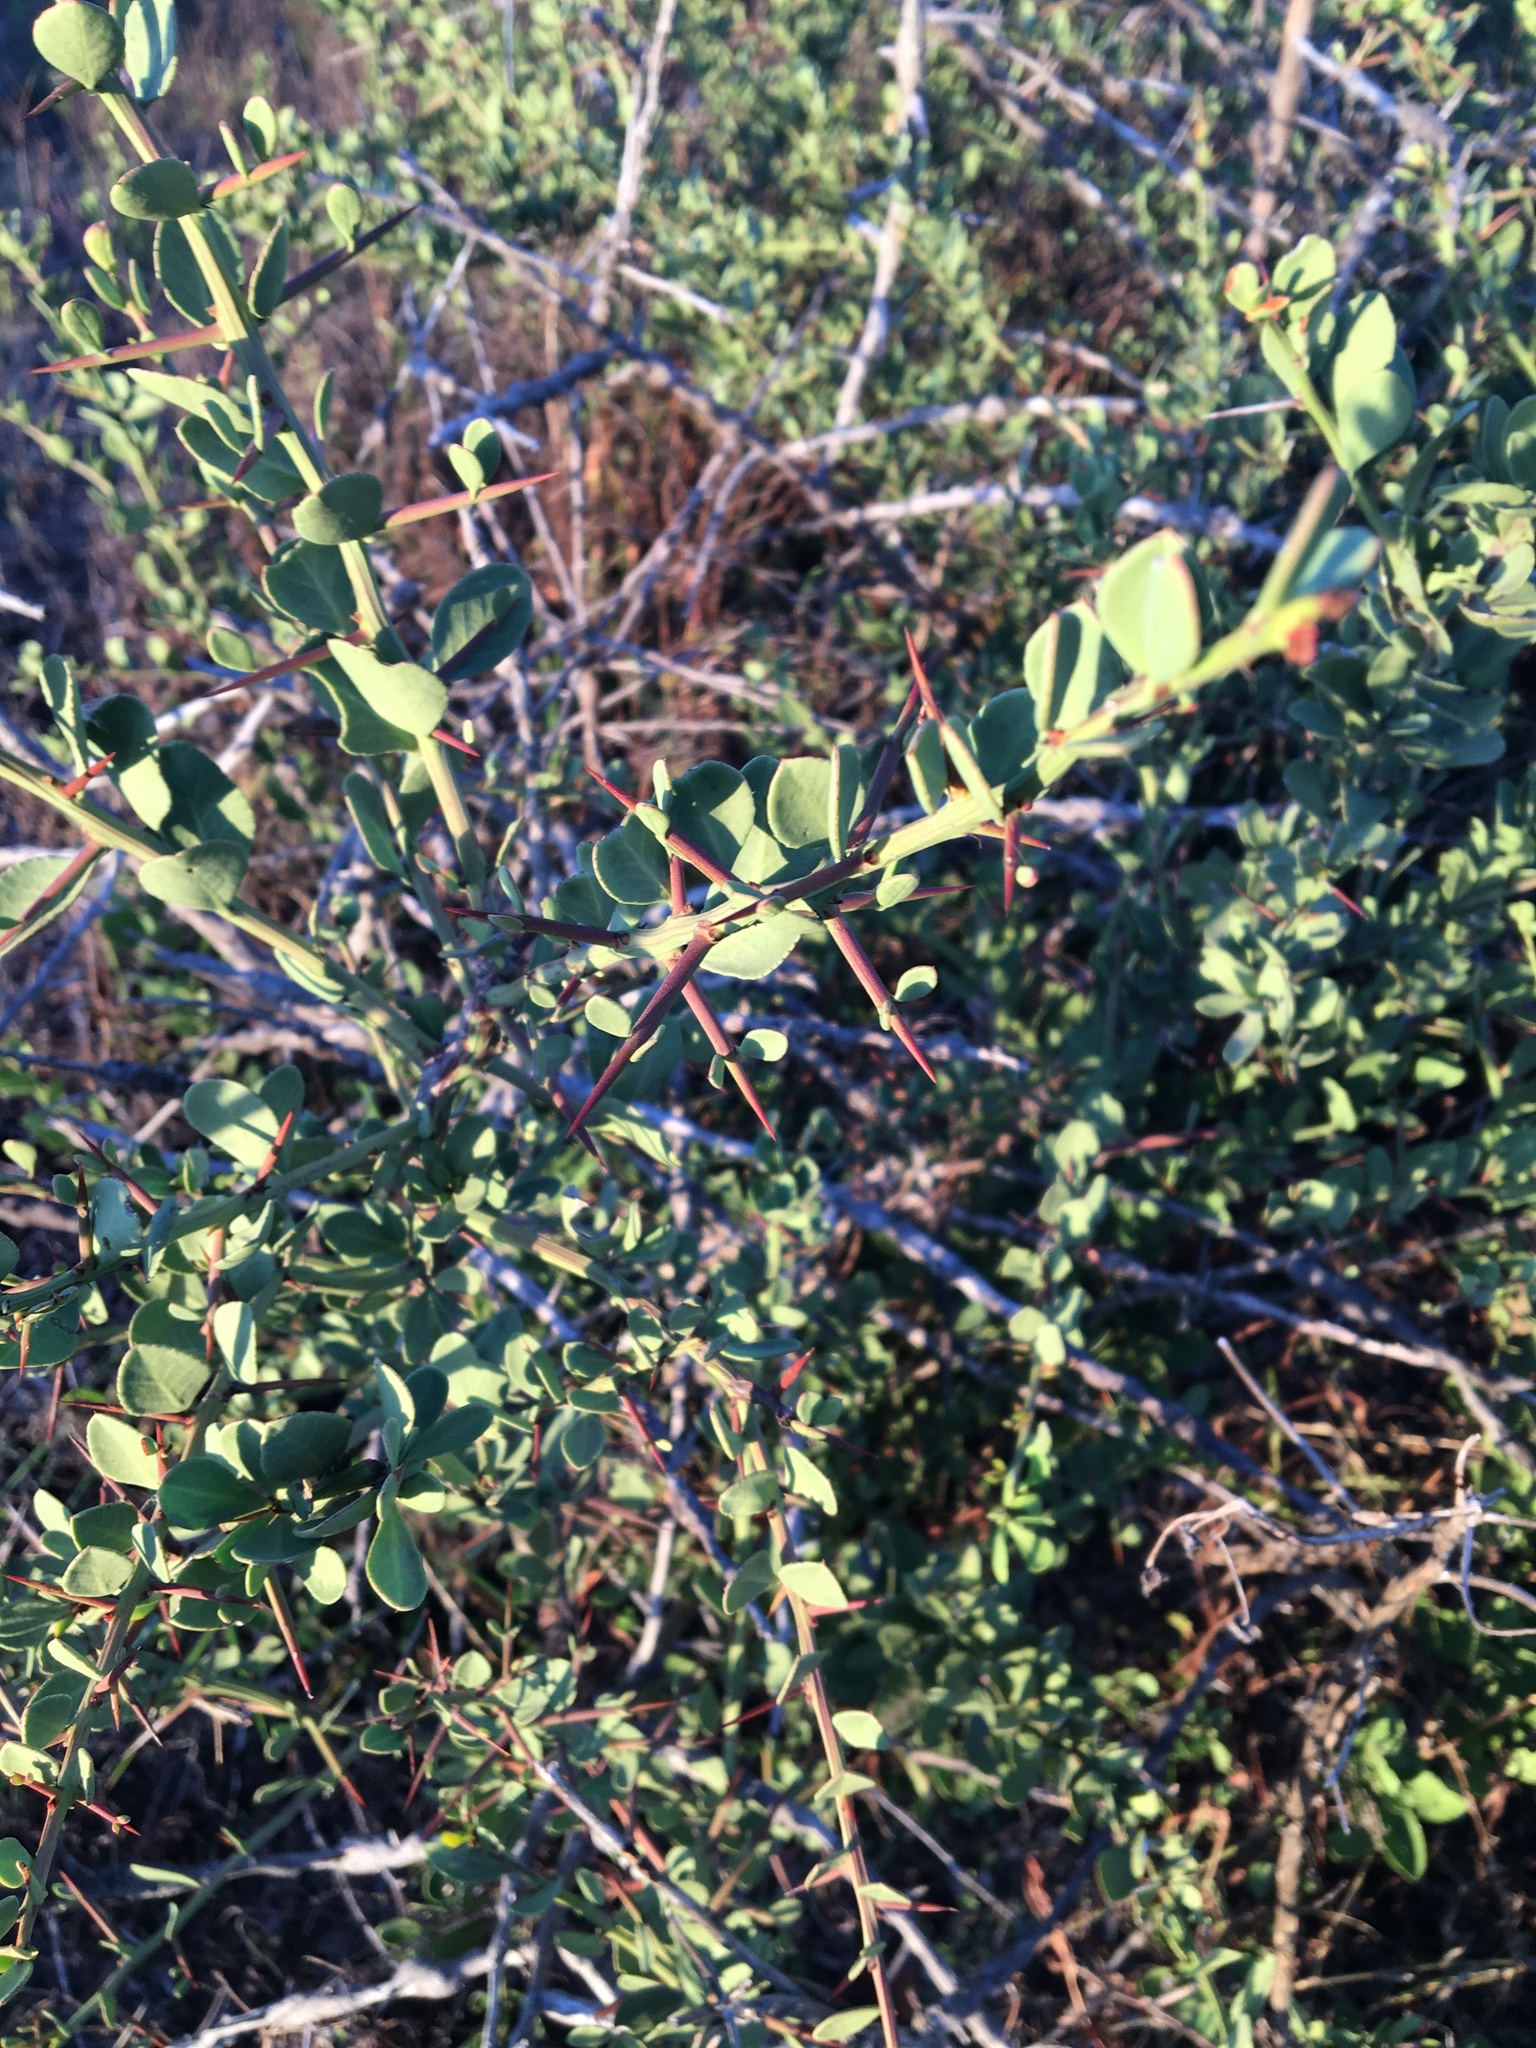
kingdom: Plantae
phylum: Tracheophyta
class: Magnoliopsida
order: Celastrales
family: Celastraceae
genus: Gymnosporia
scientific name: Gymnosporia buxifolia
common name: Common spike-thorn
